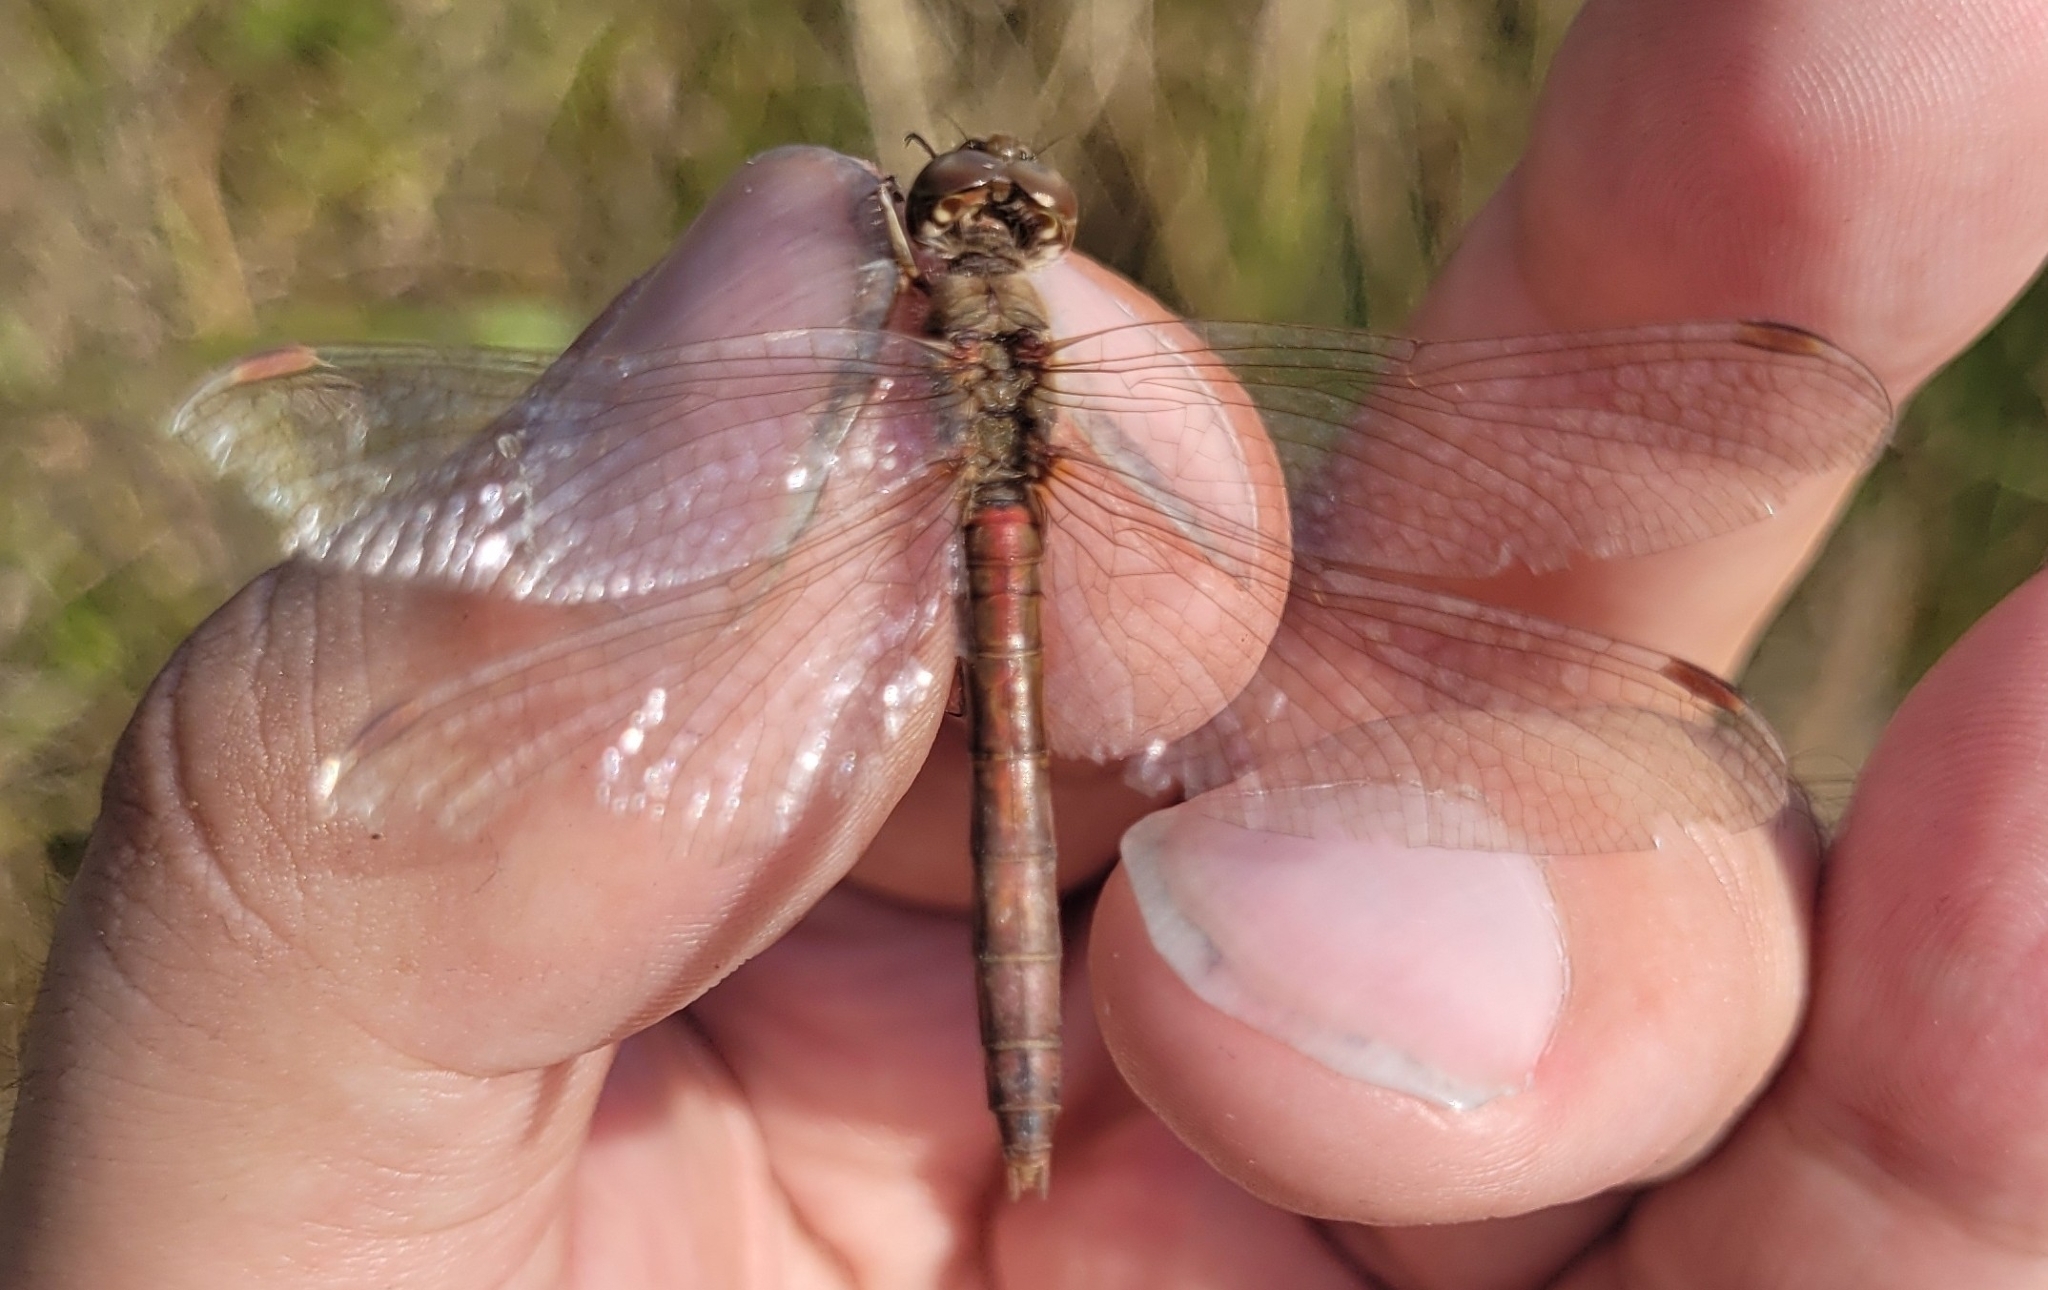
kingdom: Animalia
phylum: Arthropoda
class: Insecta
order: Odonata
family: Libellulidae
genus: Sympetrum
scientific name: Sympetrum vulgatum
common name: Vagrant darter
